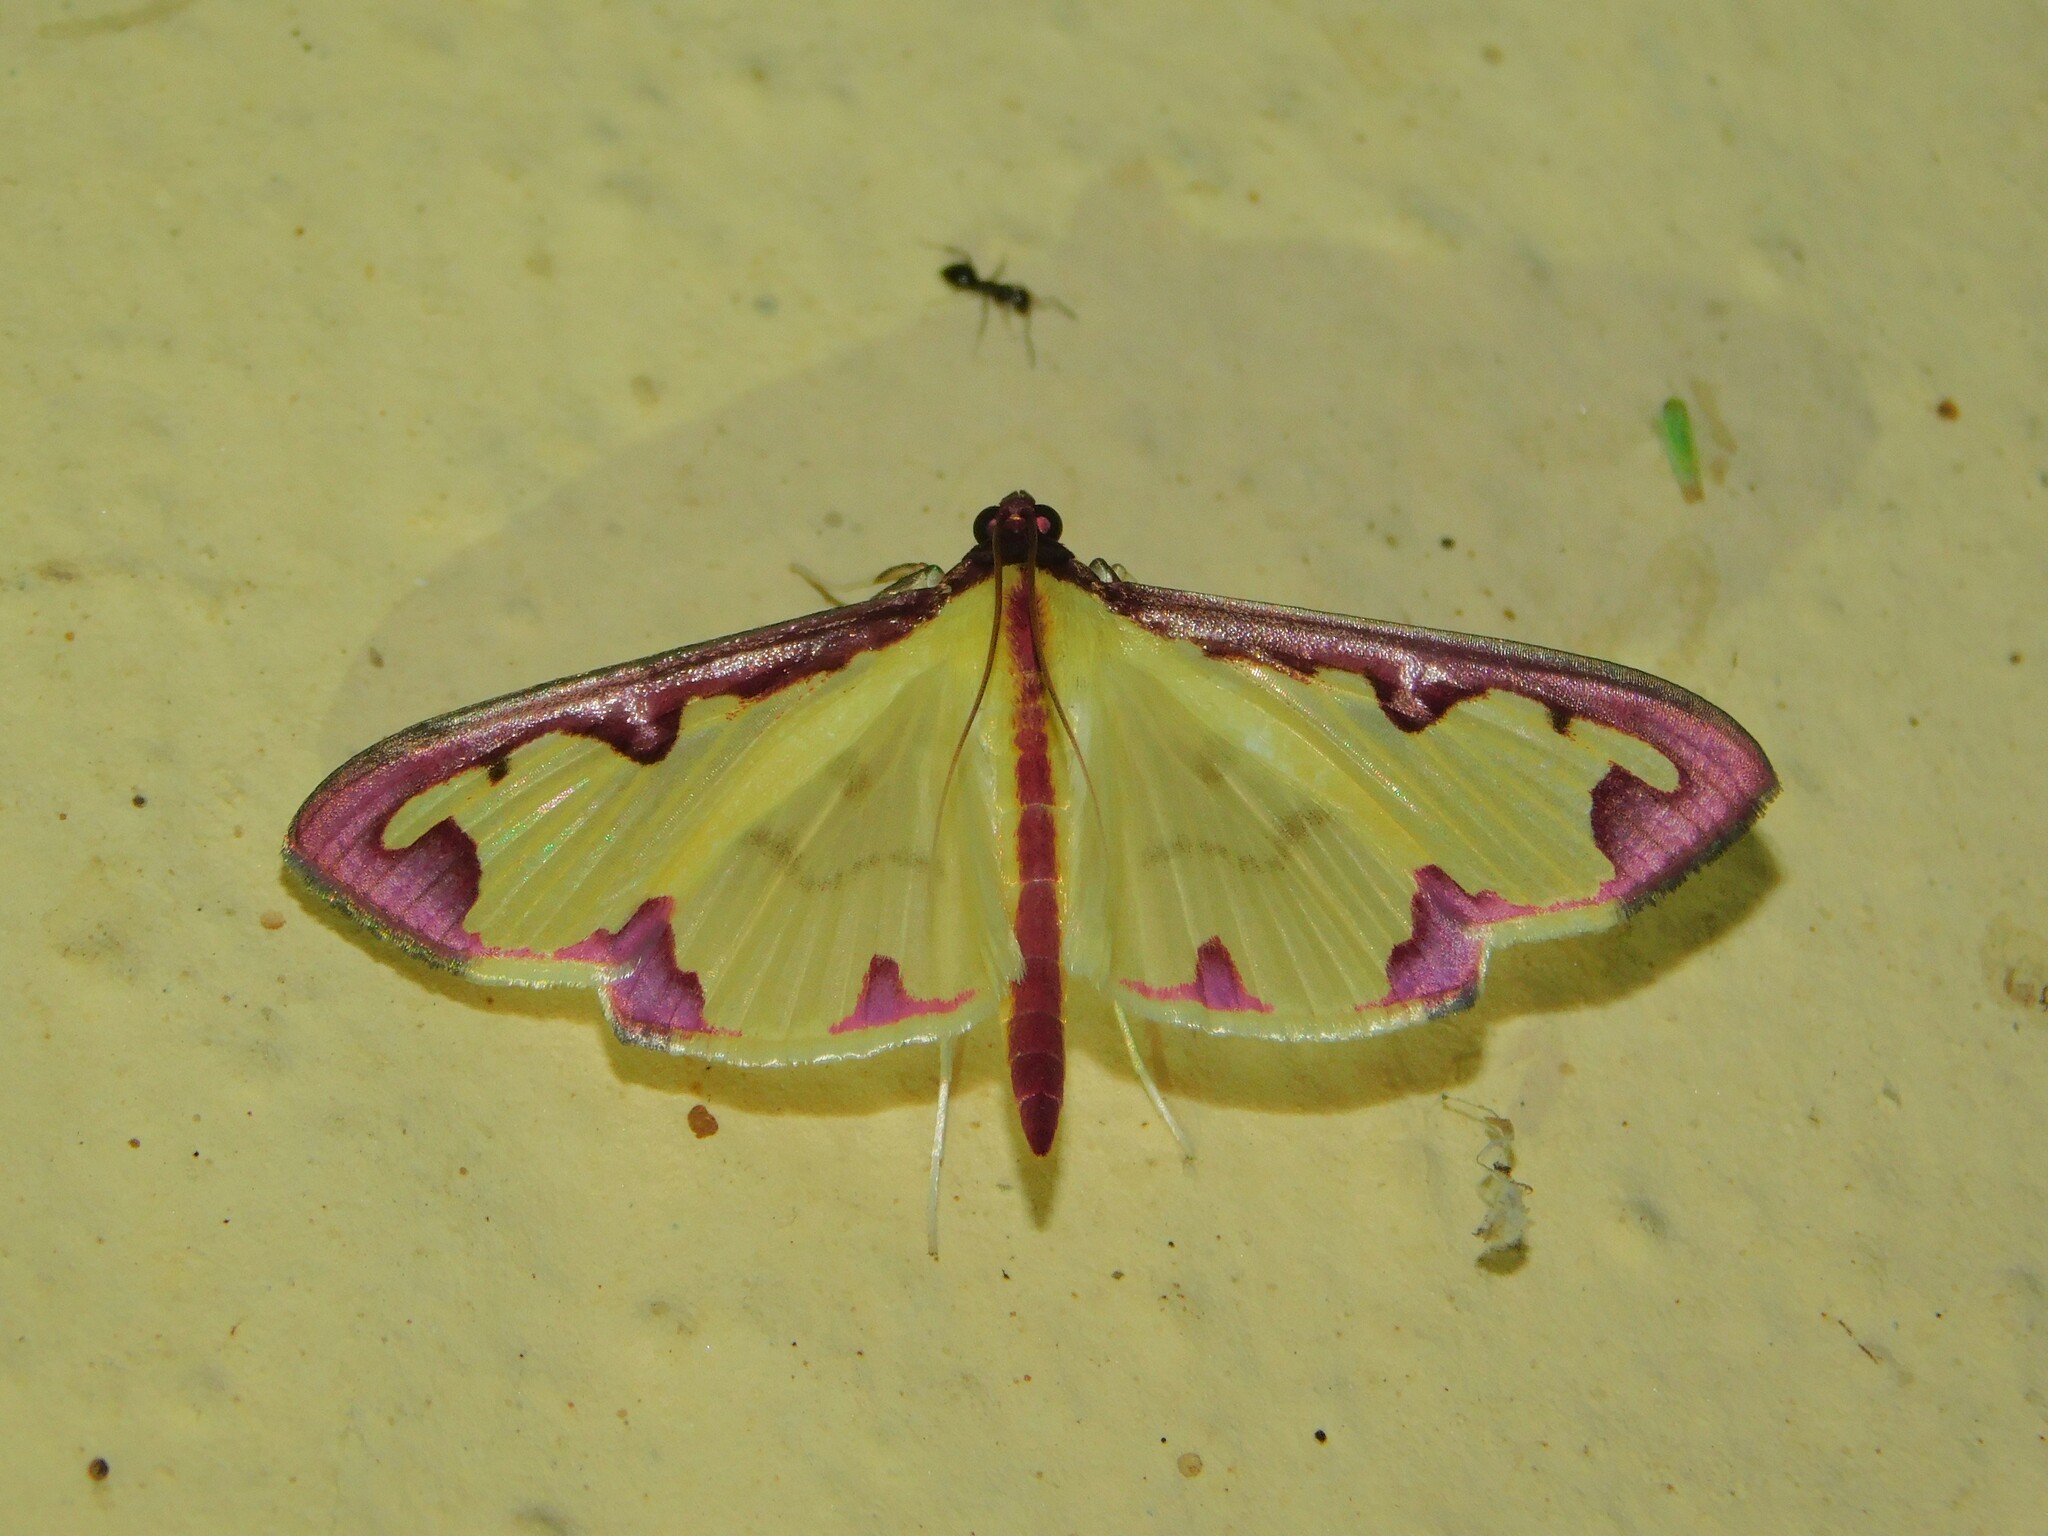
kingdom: Animalia
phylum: Arthropoda
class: Insecta
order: Lepidoptera
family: Crambidae
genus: Cadarena
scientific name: Cadarena pudoraria
